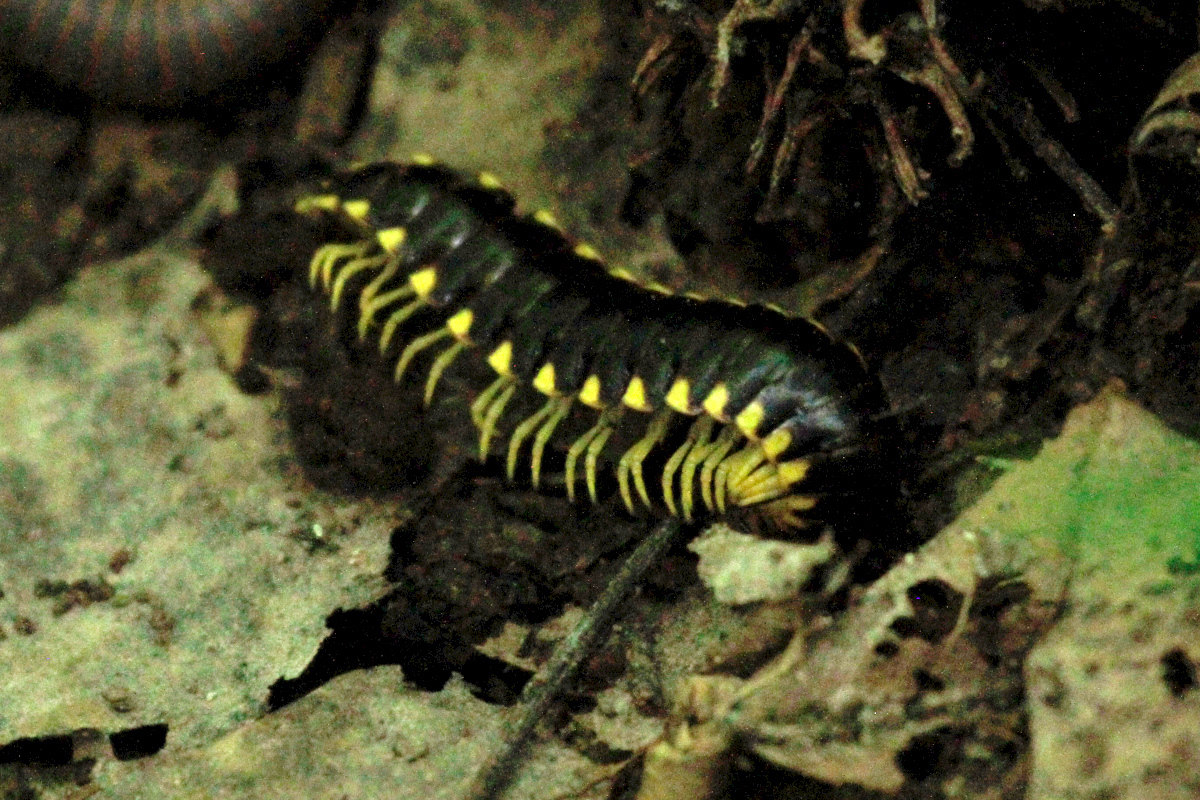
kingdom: Animalia
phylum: Arthropoda
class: Diplopoda
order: Polydesmida
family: Xystodesmidae
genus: Apheloria
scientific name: Apheloria tigana
